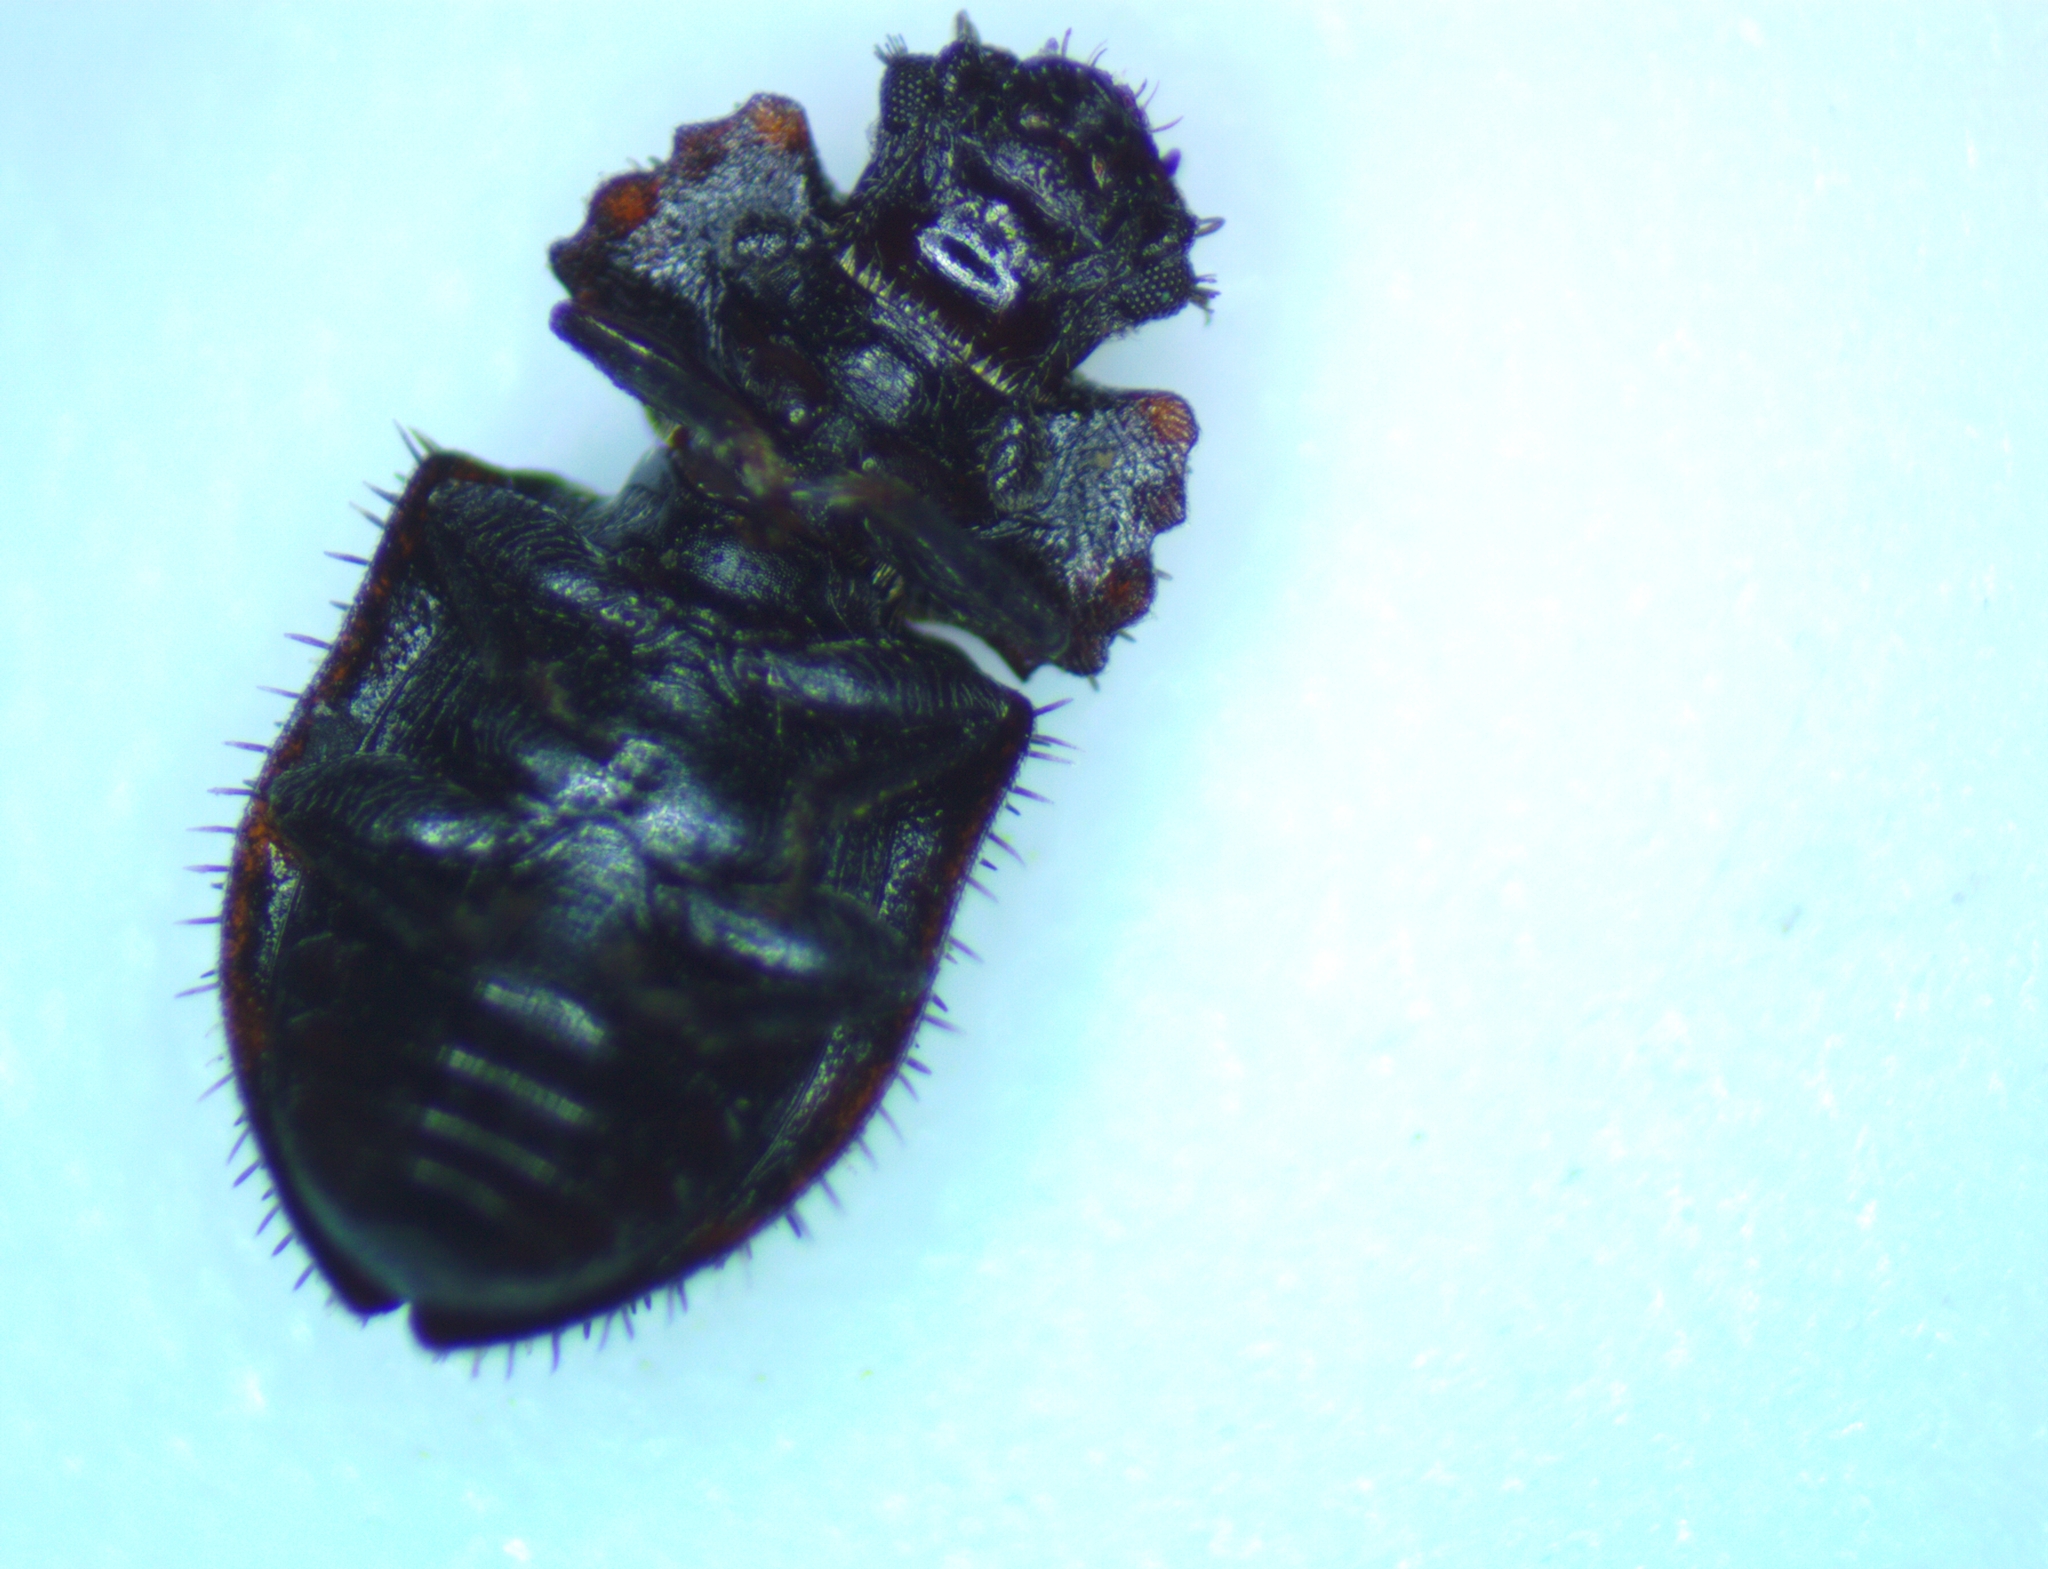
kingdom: Animalia
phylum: Arthropoda
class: Insecta
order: Coleoptera
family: Nitidulidae
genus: Hisparonia
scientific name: Hisparonia
